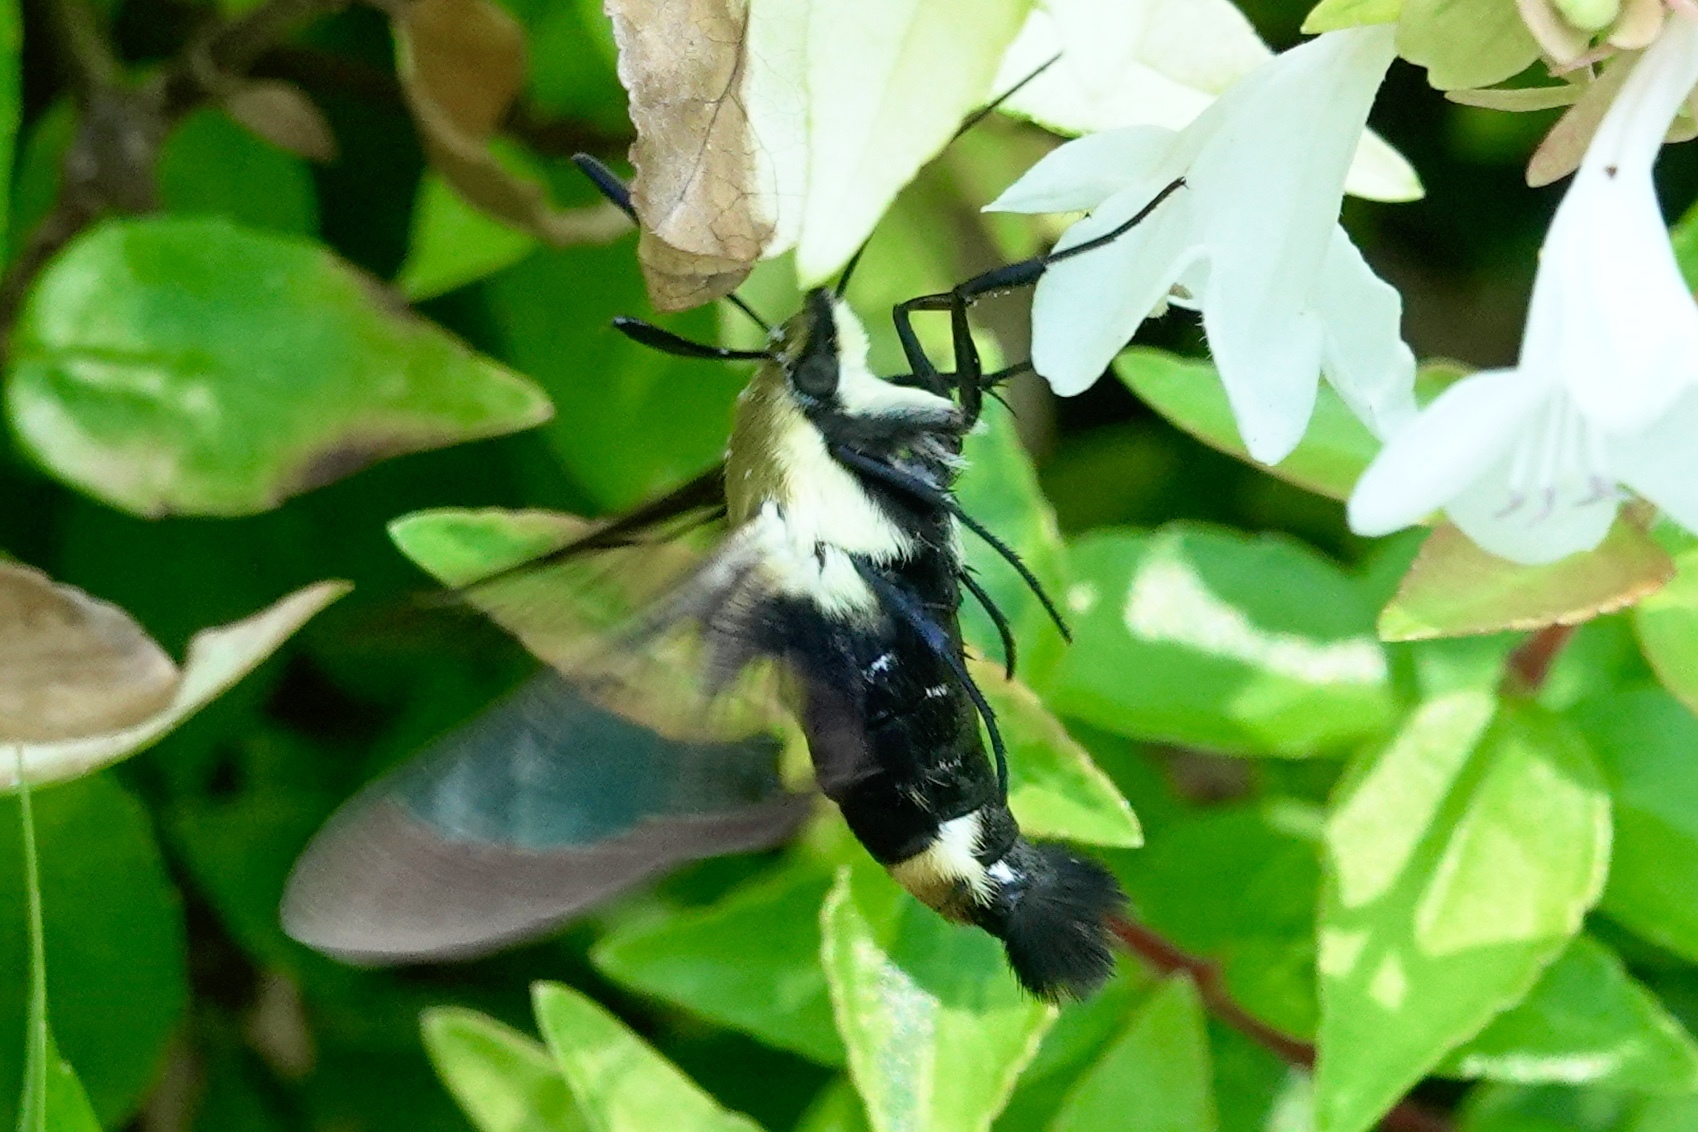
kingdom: Animalia
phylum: Arthropoda
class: Insecta
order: Lepidoptera
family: Sphingidae
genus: Hemaris
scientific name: Hemaris diffinis
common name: Bumblebee moth
